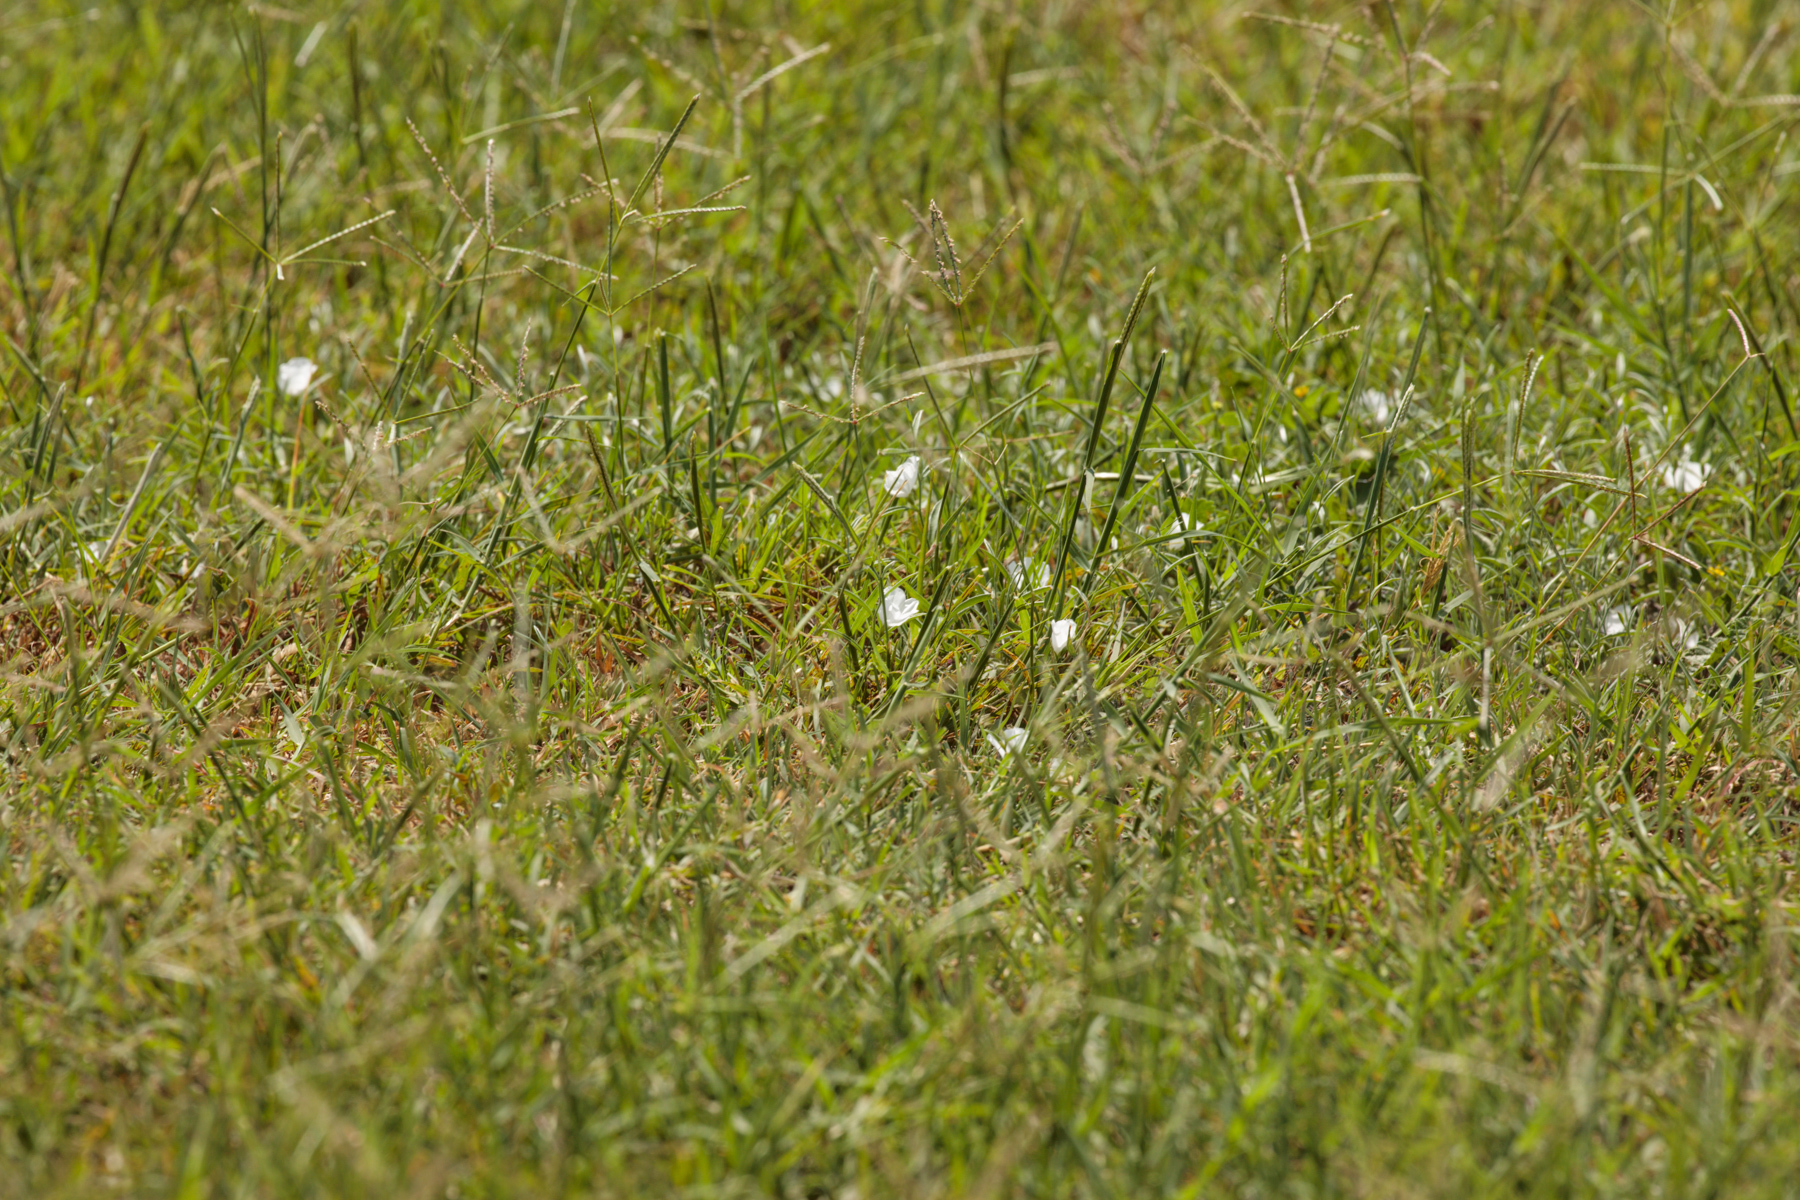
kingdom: Plantae
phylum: Tracheophyta
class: Magnoliopsida
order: Solanales
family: Convolvulaceae
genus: Evolvulus
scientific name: Evolvulus sericeus
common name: Blue dots
